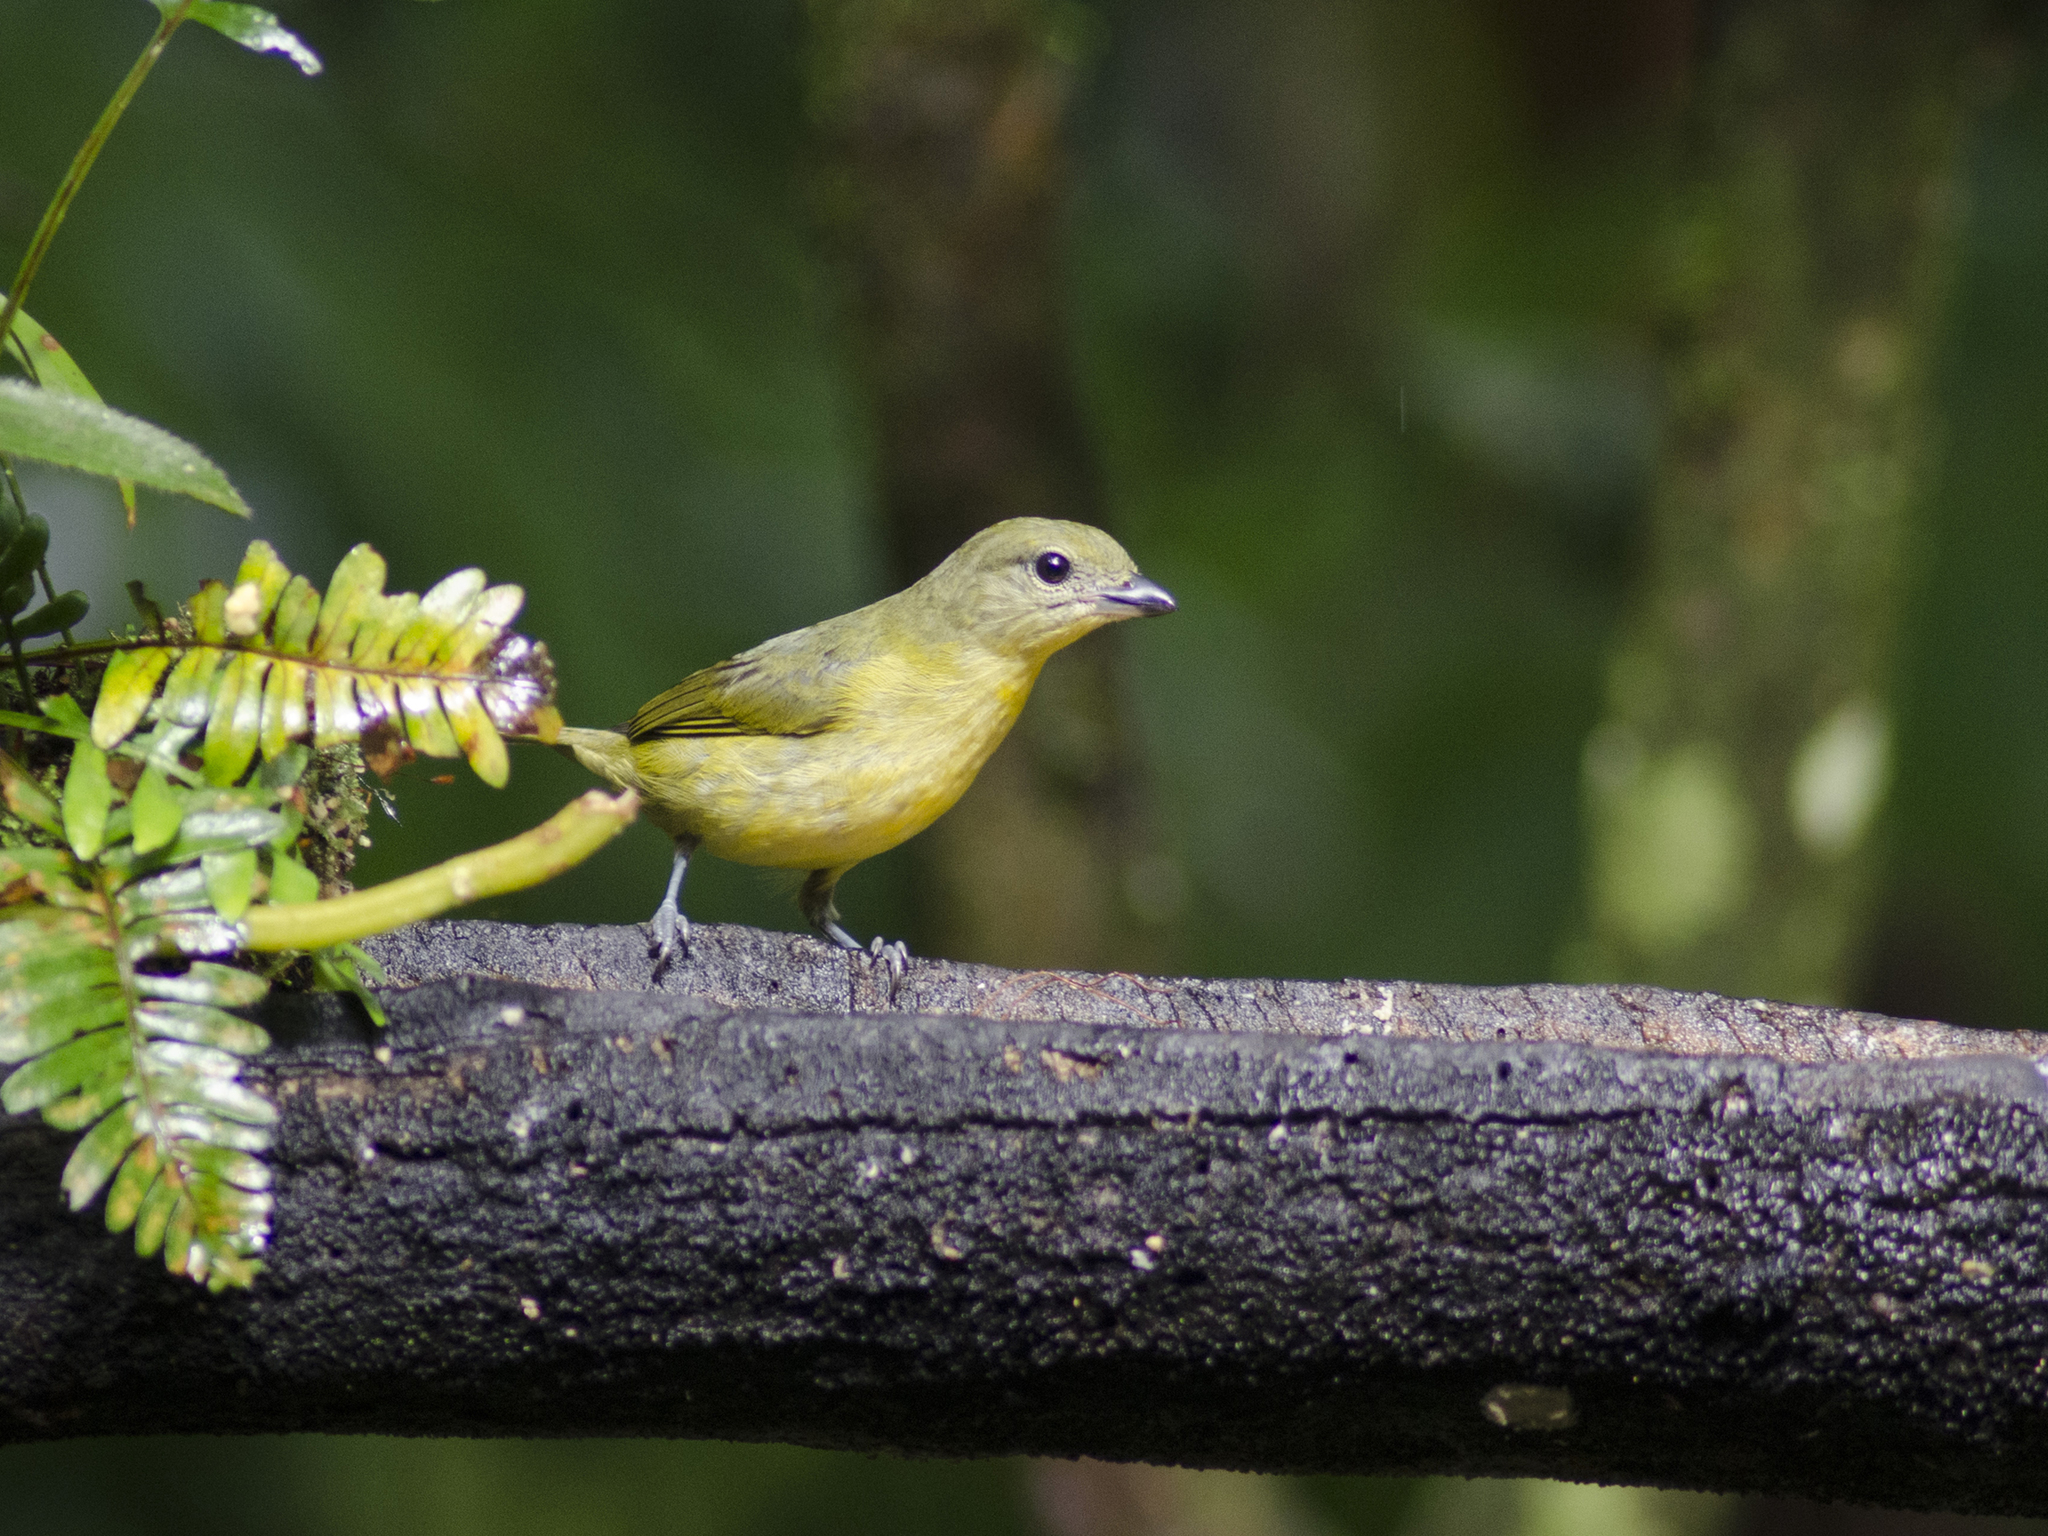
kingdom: Animalia
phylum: Chordata
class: Aves
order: Passeriformes
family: Fringillidae
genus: Euphonia
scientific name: Euphonia laniirostris
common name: Thick-billed euphonia
